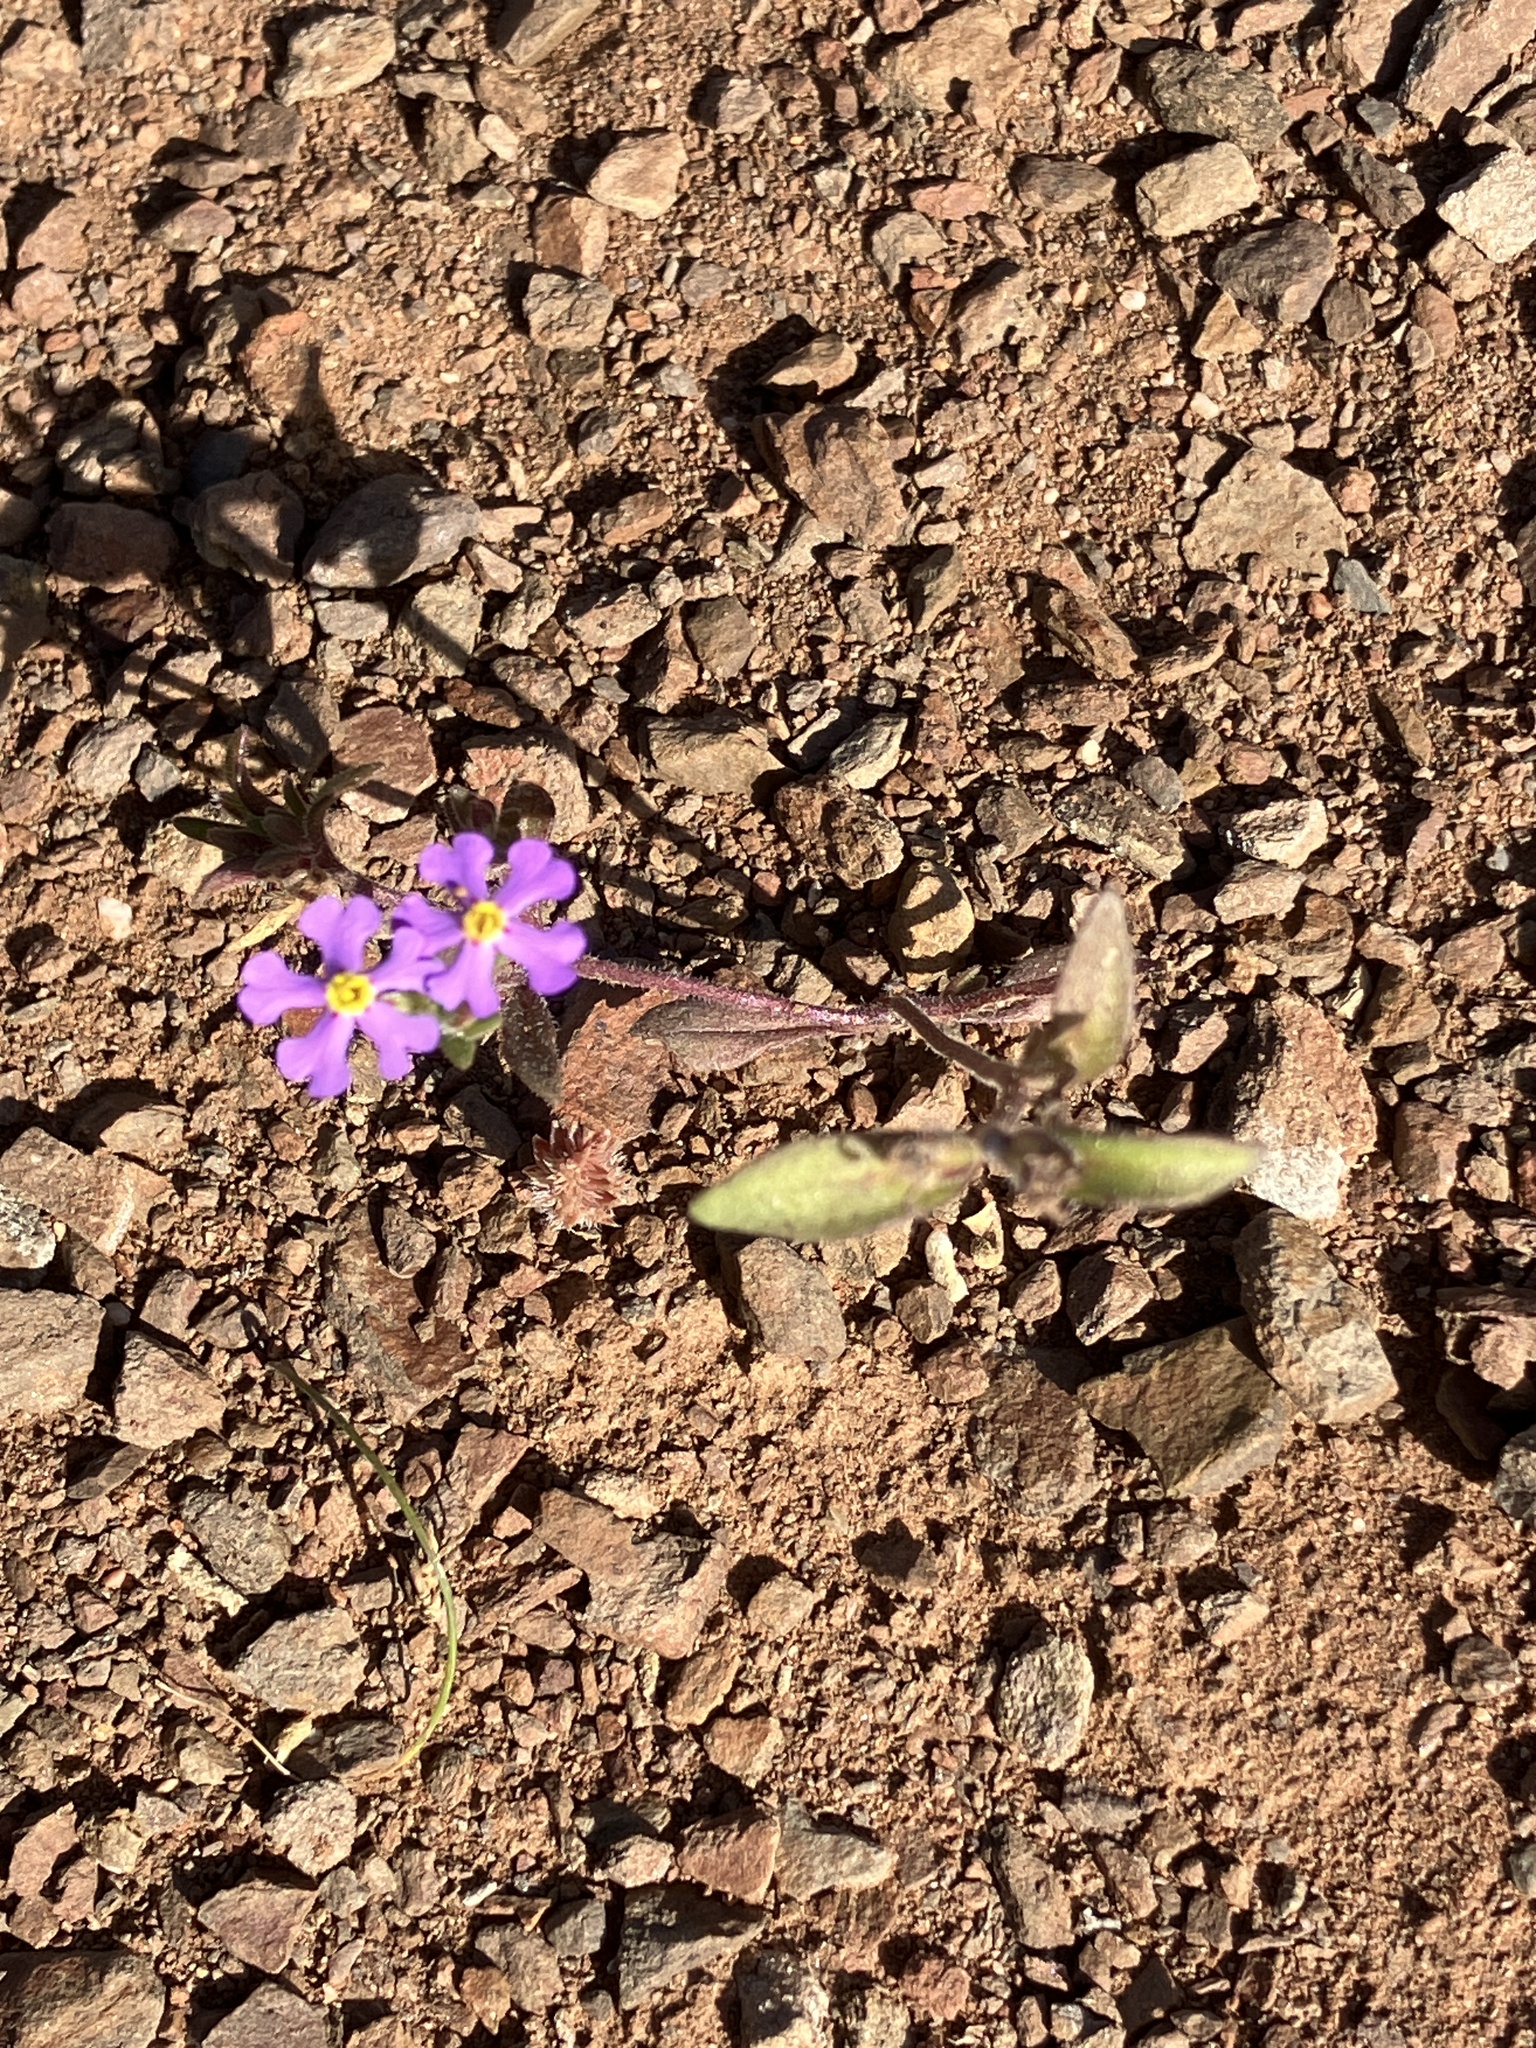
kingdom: Plantae
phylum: Tracheophyta
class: Magnoliopsida
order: Lamiales
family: Scrophulariaceae
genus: Zaluzianskya
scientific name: Zaluzianskya violacea
